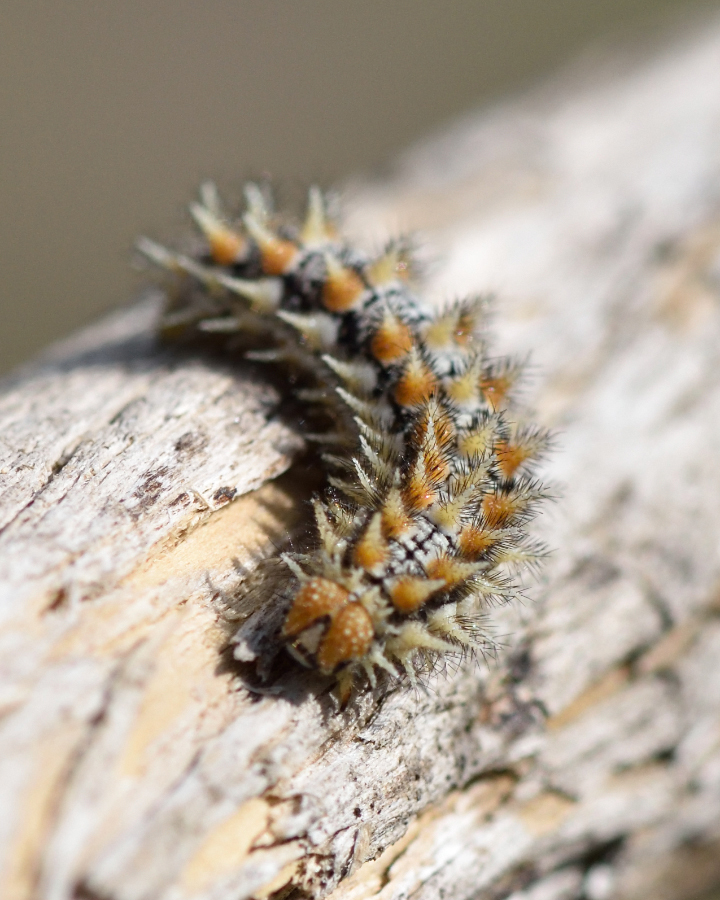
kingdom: Animalia
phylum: Arthropoda
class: Insecta
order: Lepidoptera
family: Nymphalidae
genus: Melitaea
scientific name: Melitaea didyma
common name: Spotted fritillary
